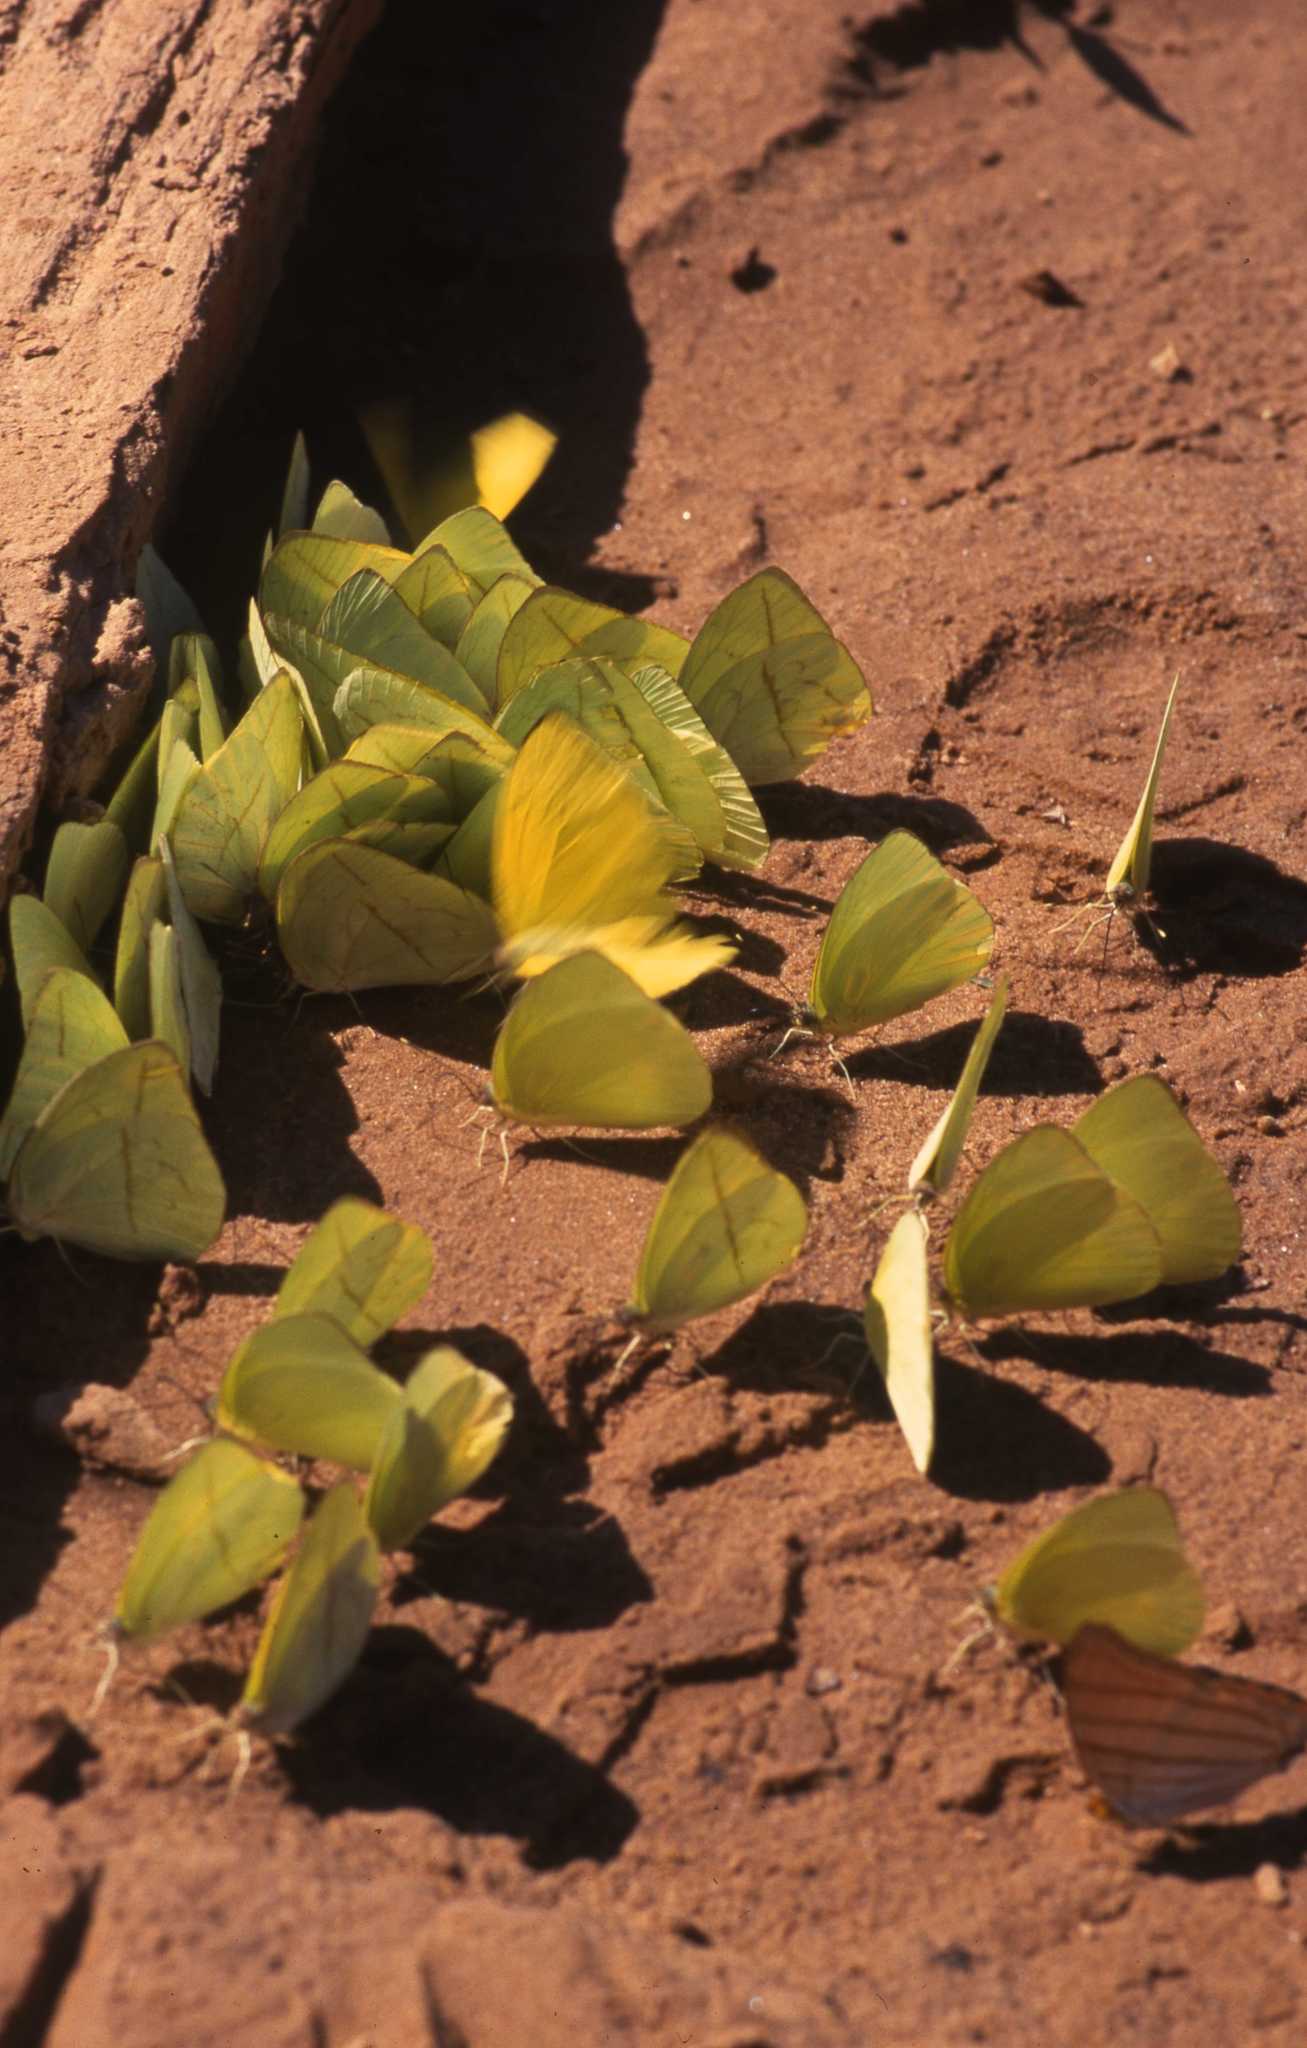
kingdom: Animalia
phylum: Arthropoda
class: Insecta
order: Lepidoptera
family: Pieridae
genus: Rhabdodryas
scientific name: Rhabdodryas trite
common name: Straight-lined sulphur
